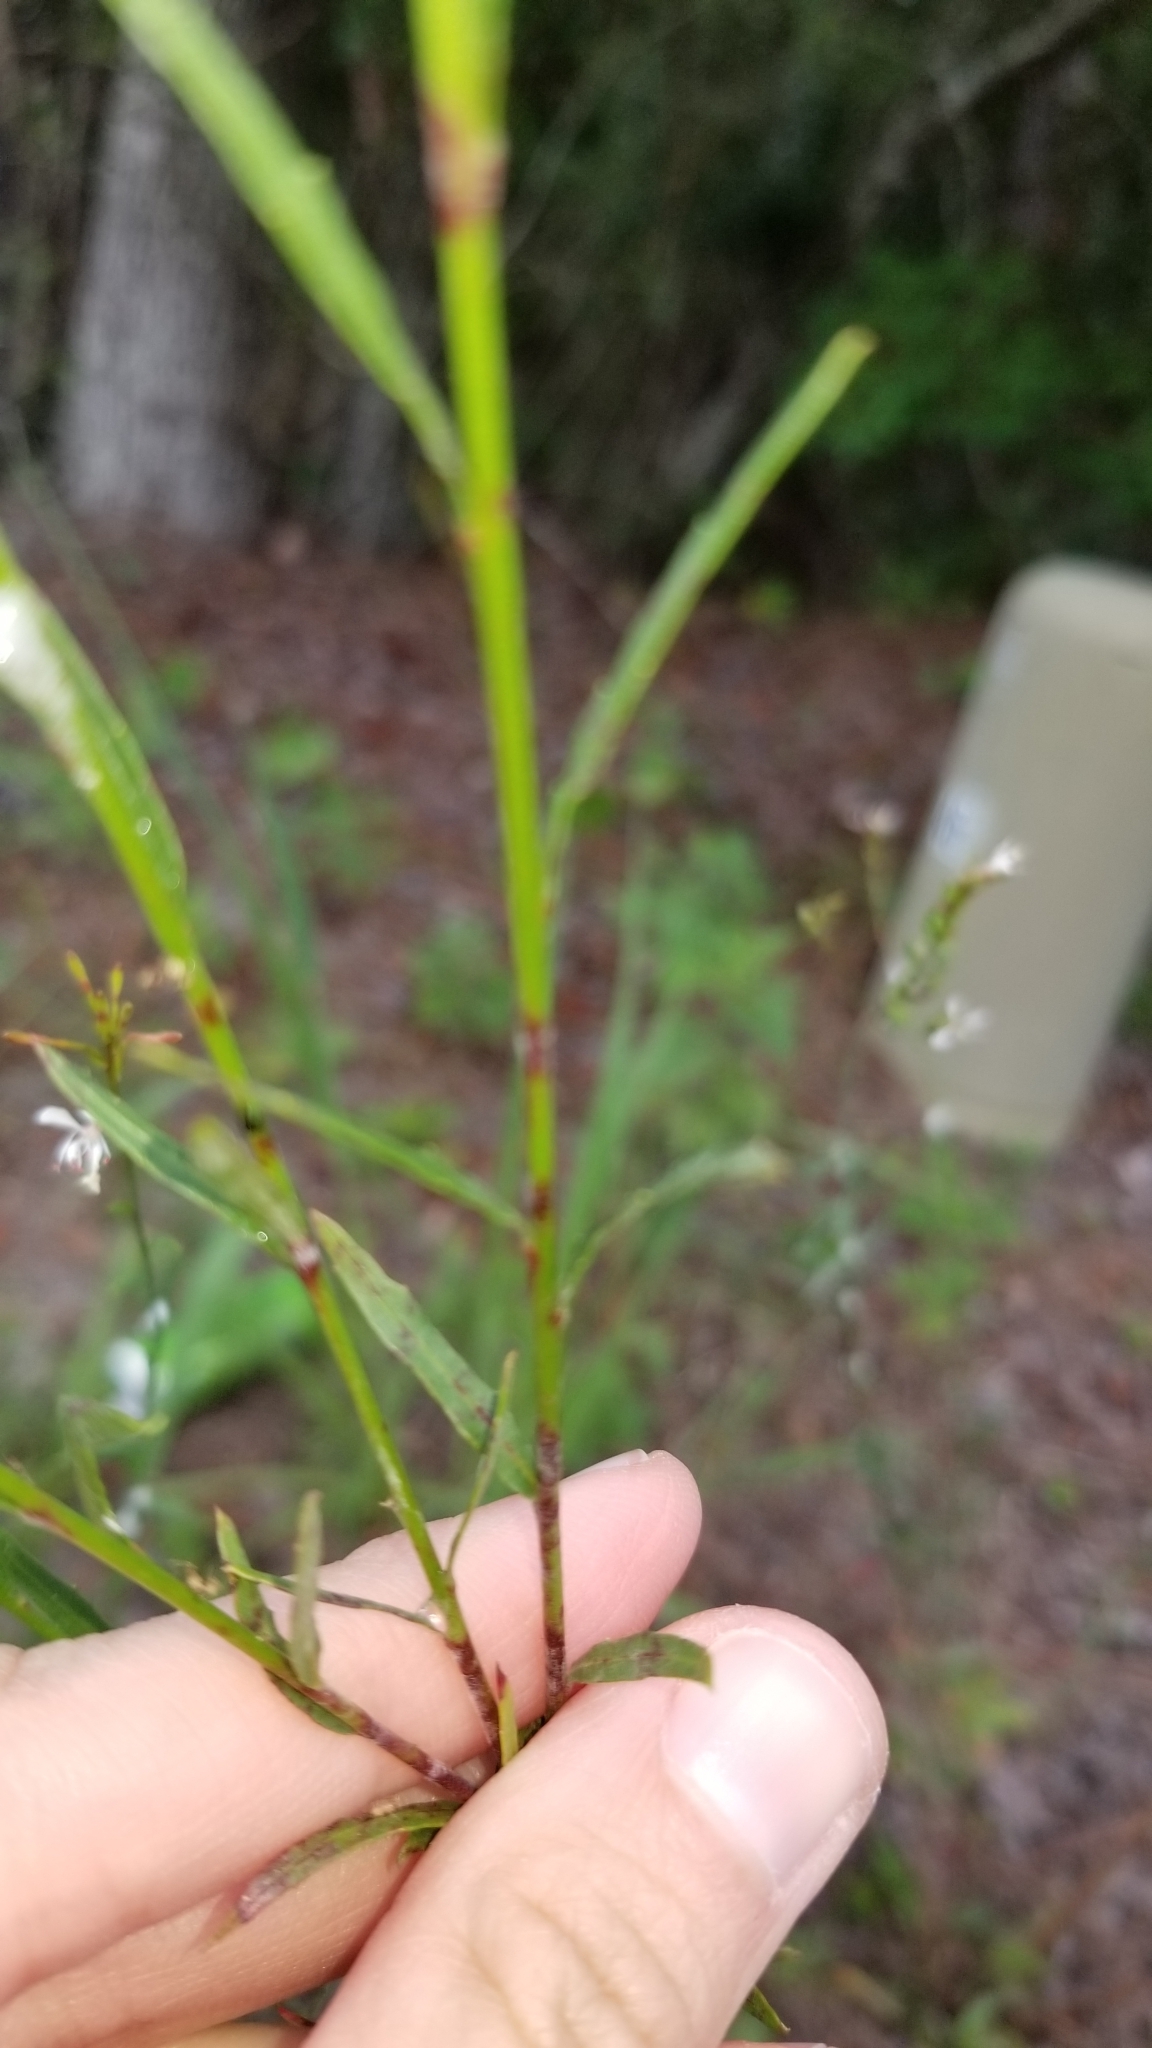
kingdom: Plantae
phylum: Tracheophyta
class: Magnoliopsida
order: Myrtales
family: Onagraceae
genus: Oenothera
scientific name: Oenothera simulans
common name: Southern beeblossom
